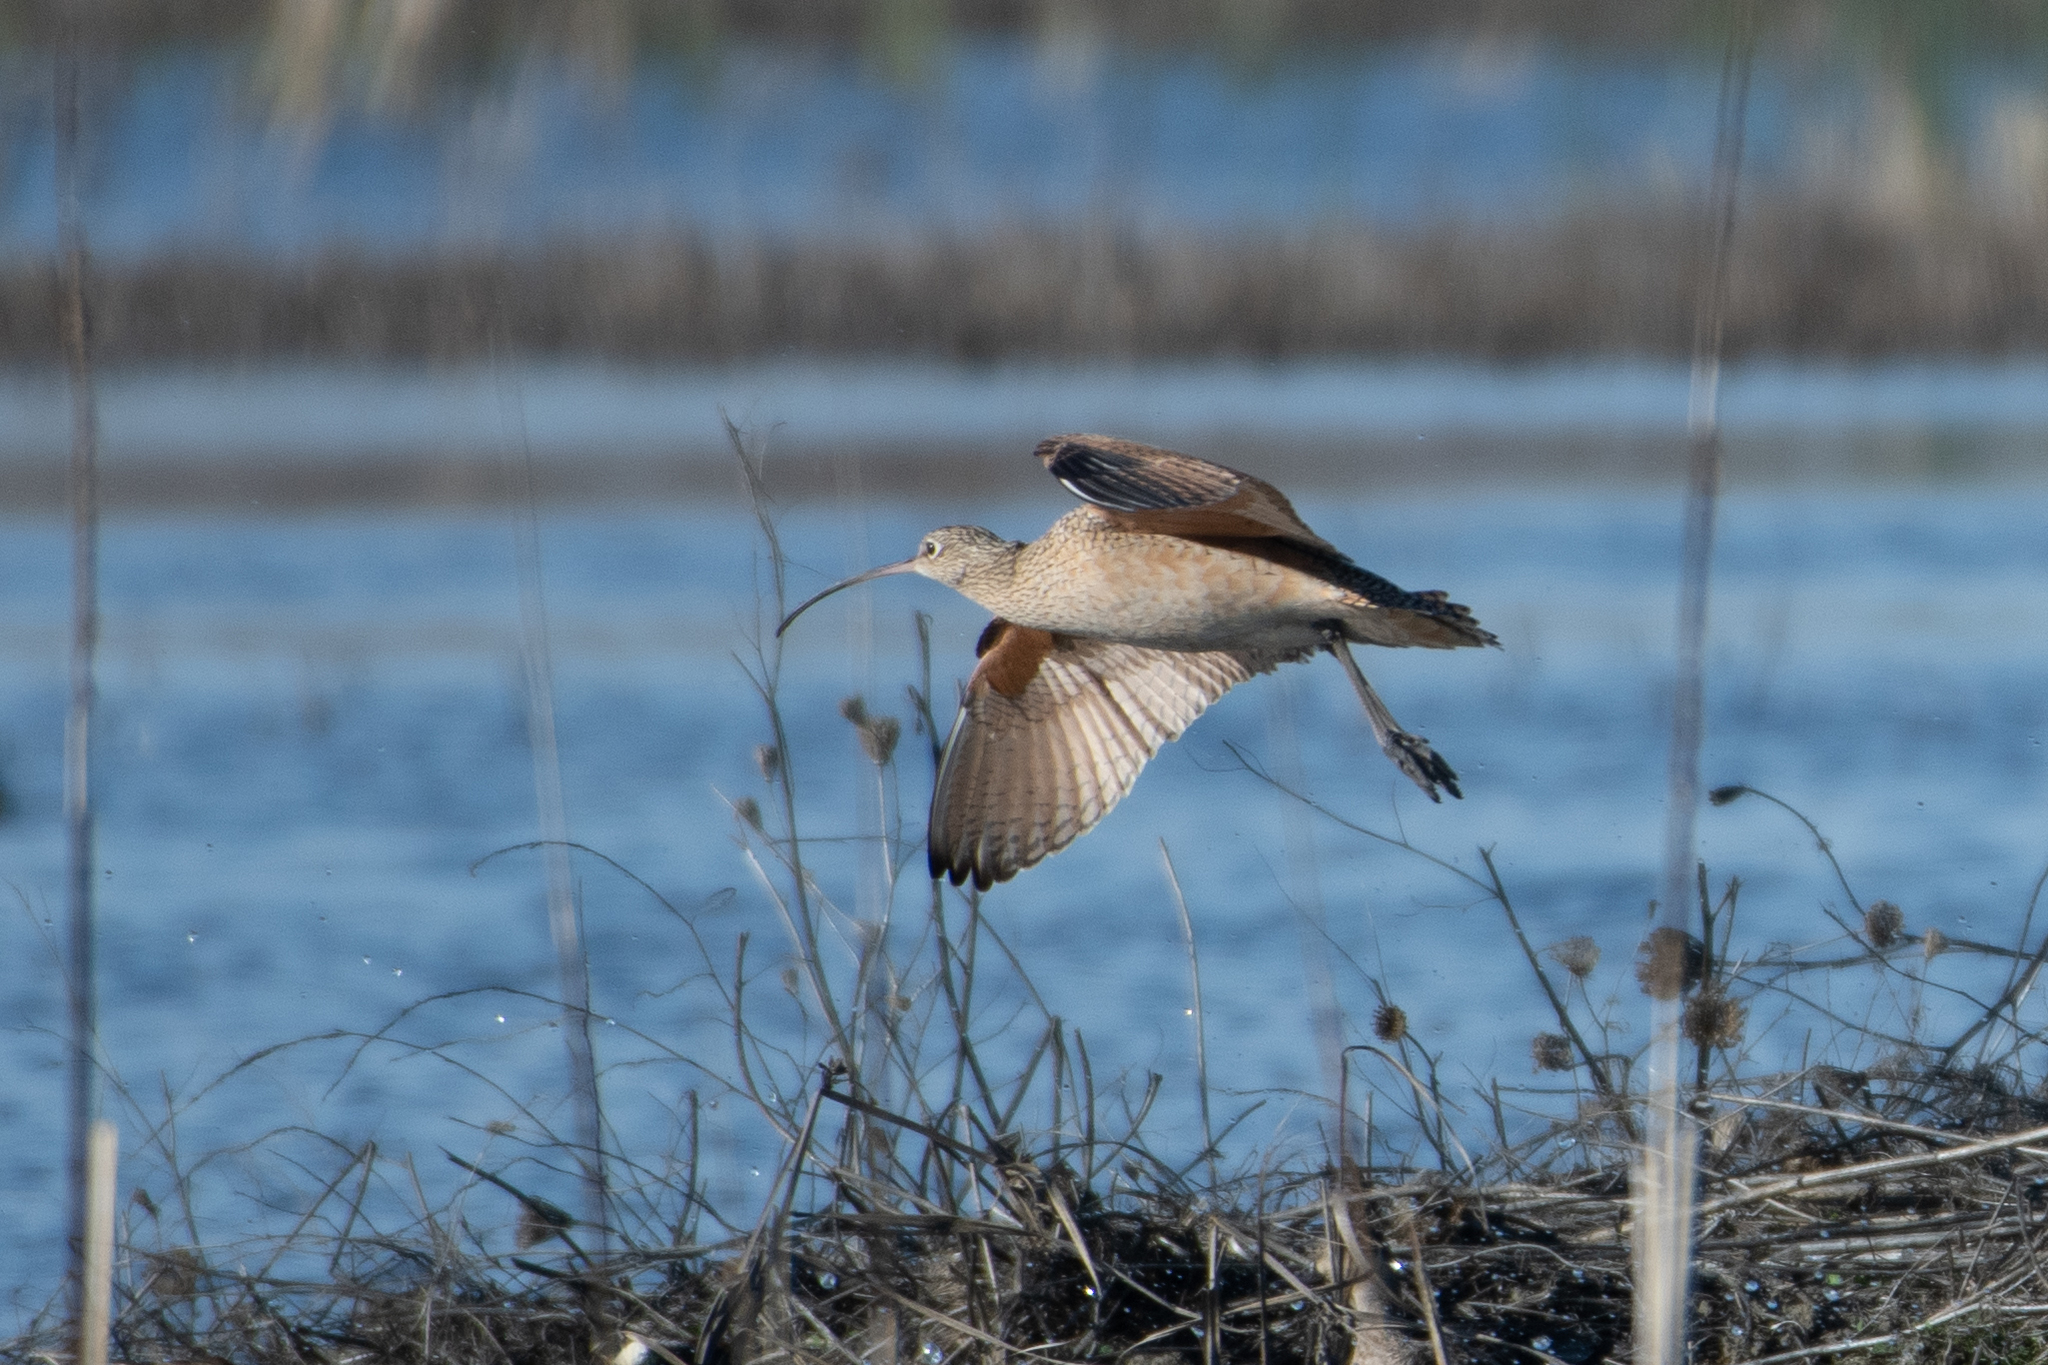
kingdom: Animalia
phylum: Chordata
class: Aves
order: Charadriiformes
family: Scolopacidae
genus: Numenius
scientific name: Numenius americanus
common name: Long-billed curlew
